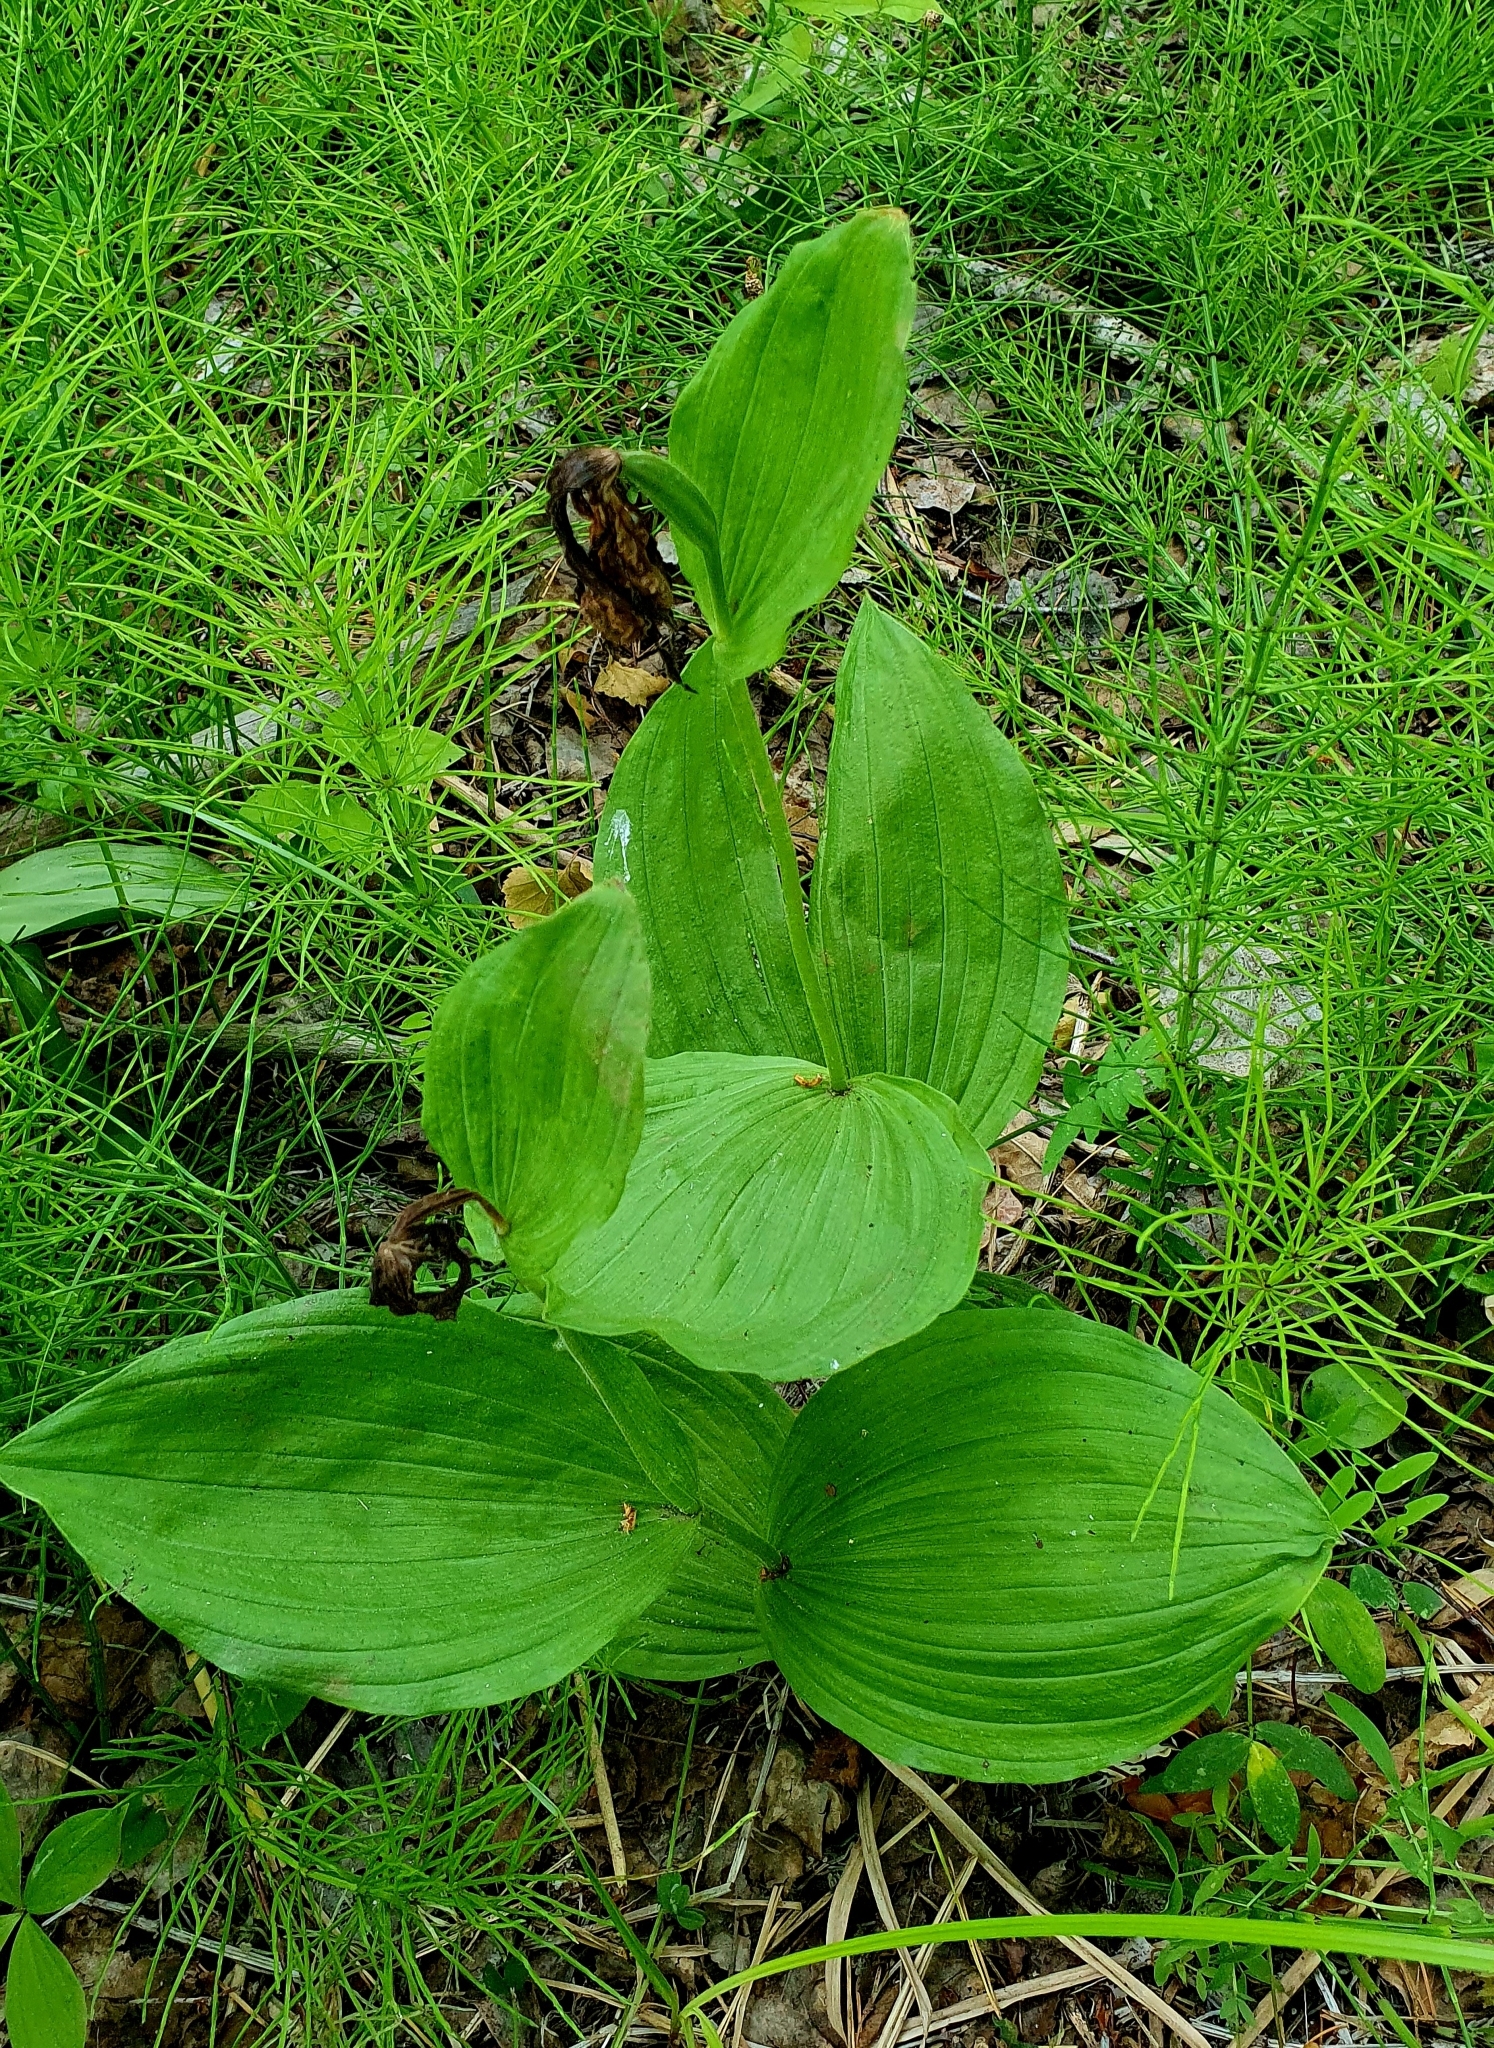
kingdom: Plantae
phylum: Tracheophyta
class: Liliopsida
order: Asparagales
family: Orchidaceae
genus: Cypripedium
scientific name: Cypripedium calceolus
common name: Lady's-slipper
